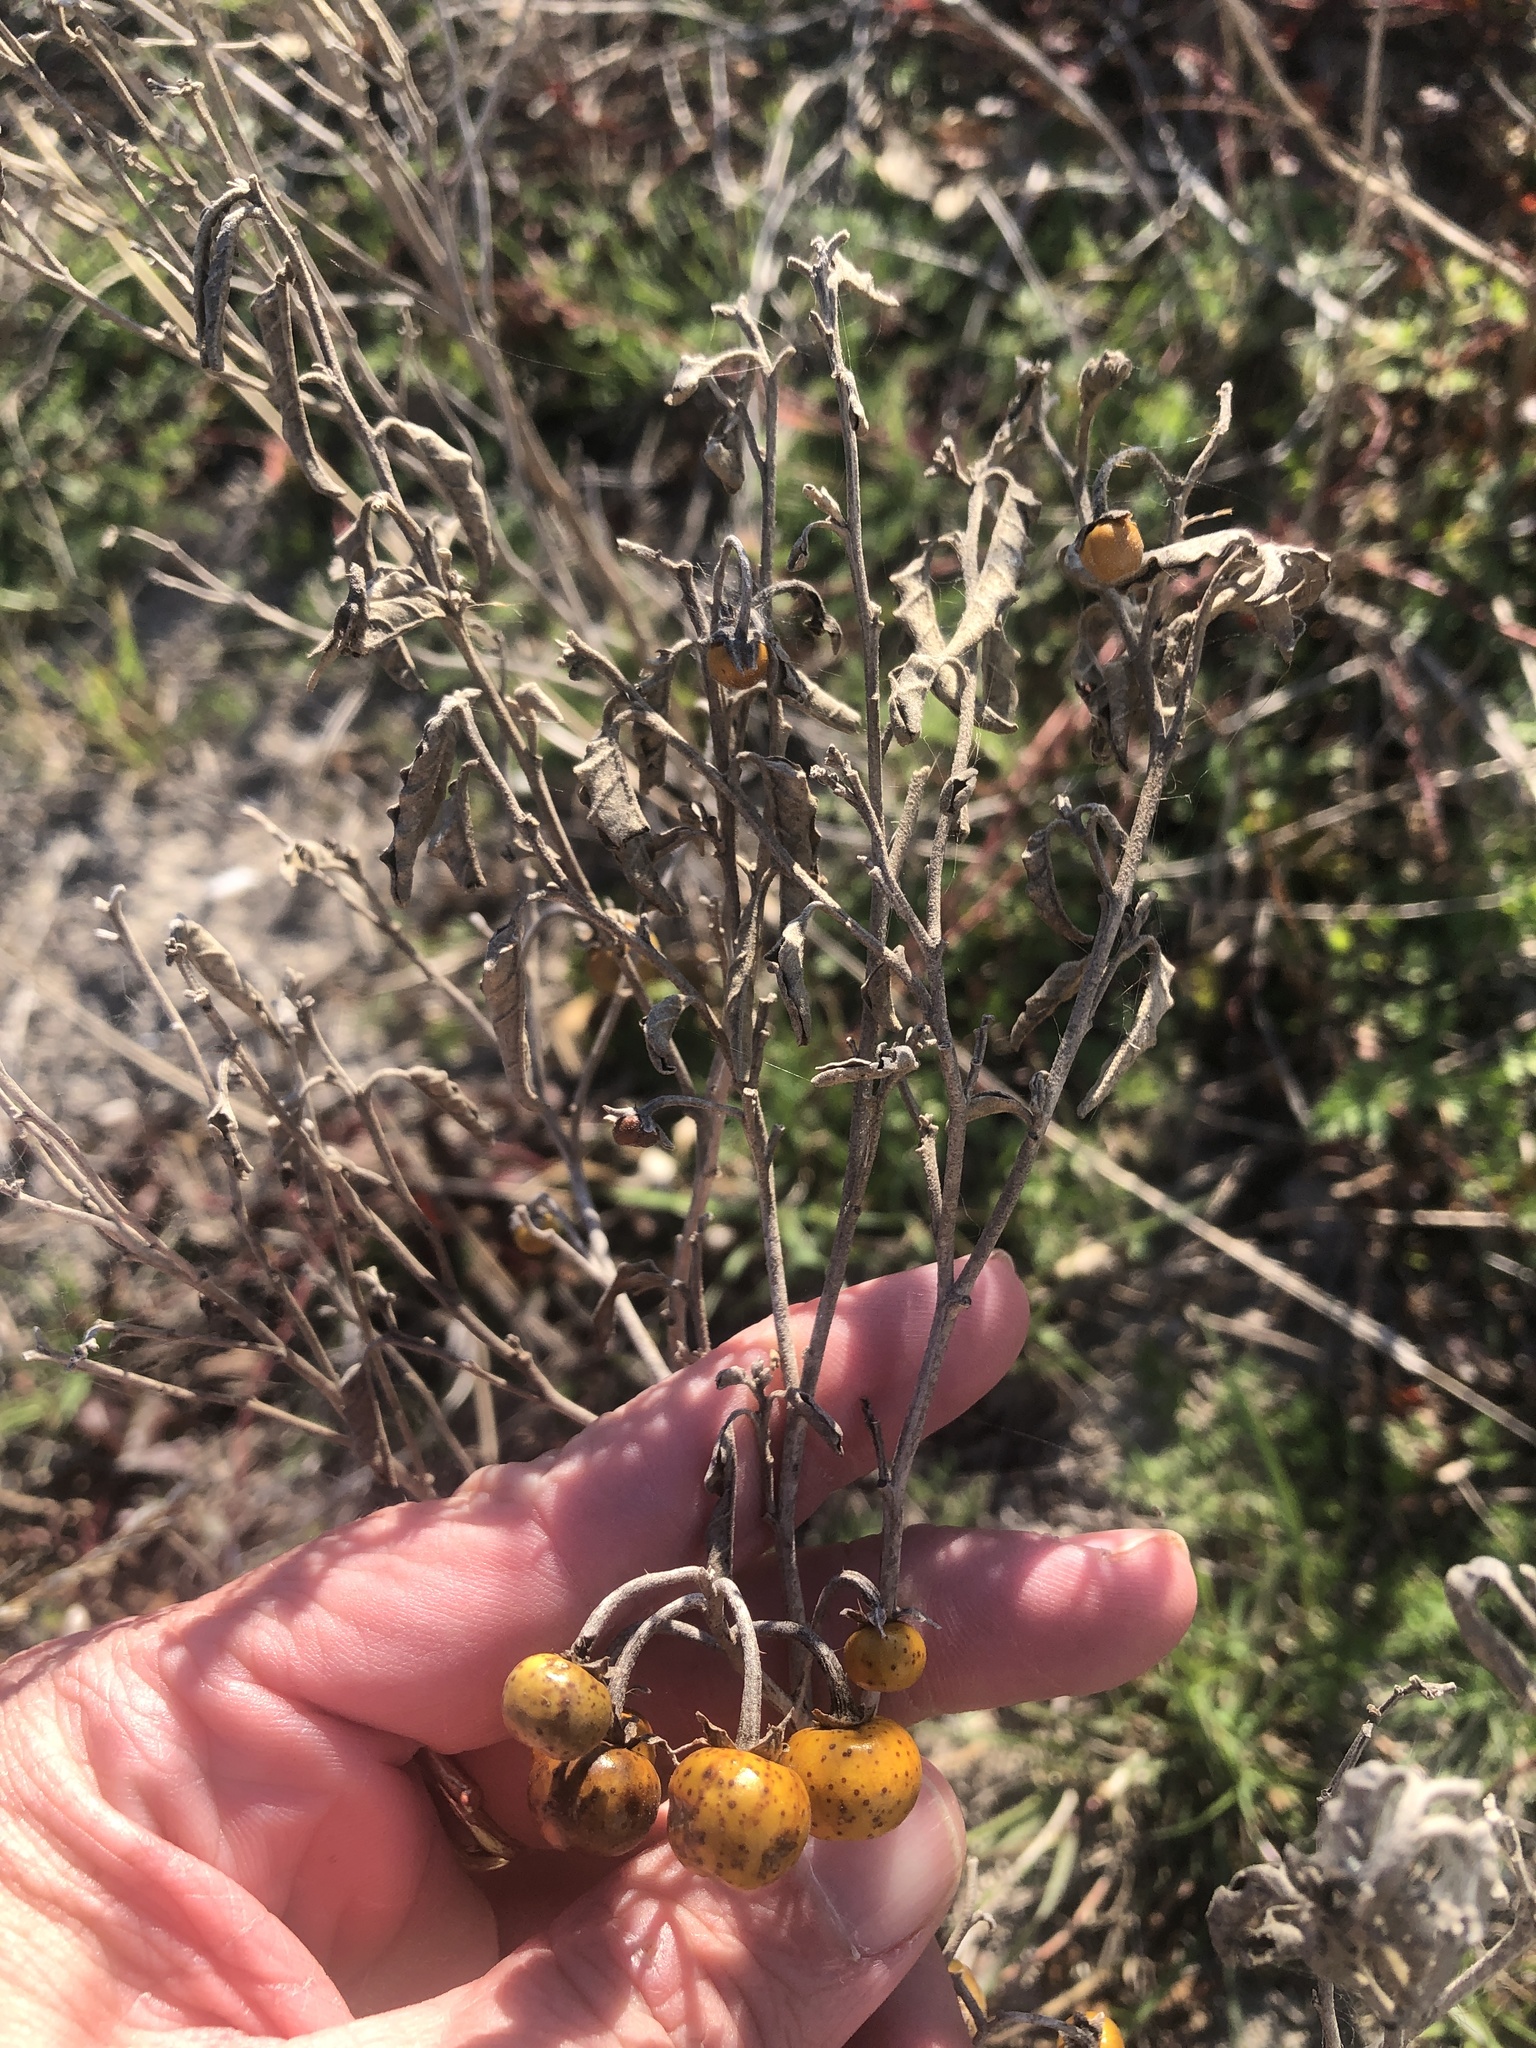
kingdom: Plantae
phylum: Tracheophyta
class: Magnoliopsida
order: Solanales
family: Solanaceae
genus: Solanum
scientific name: Solanum elaeagnifolium
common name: Silverleaf nightshade
